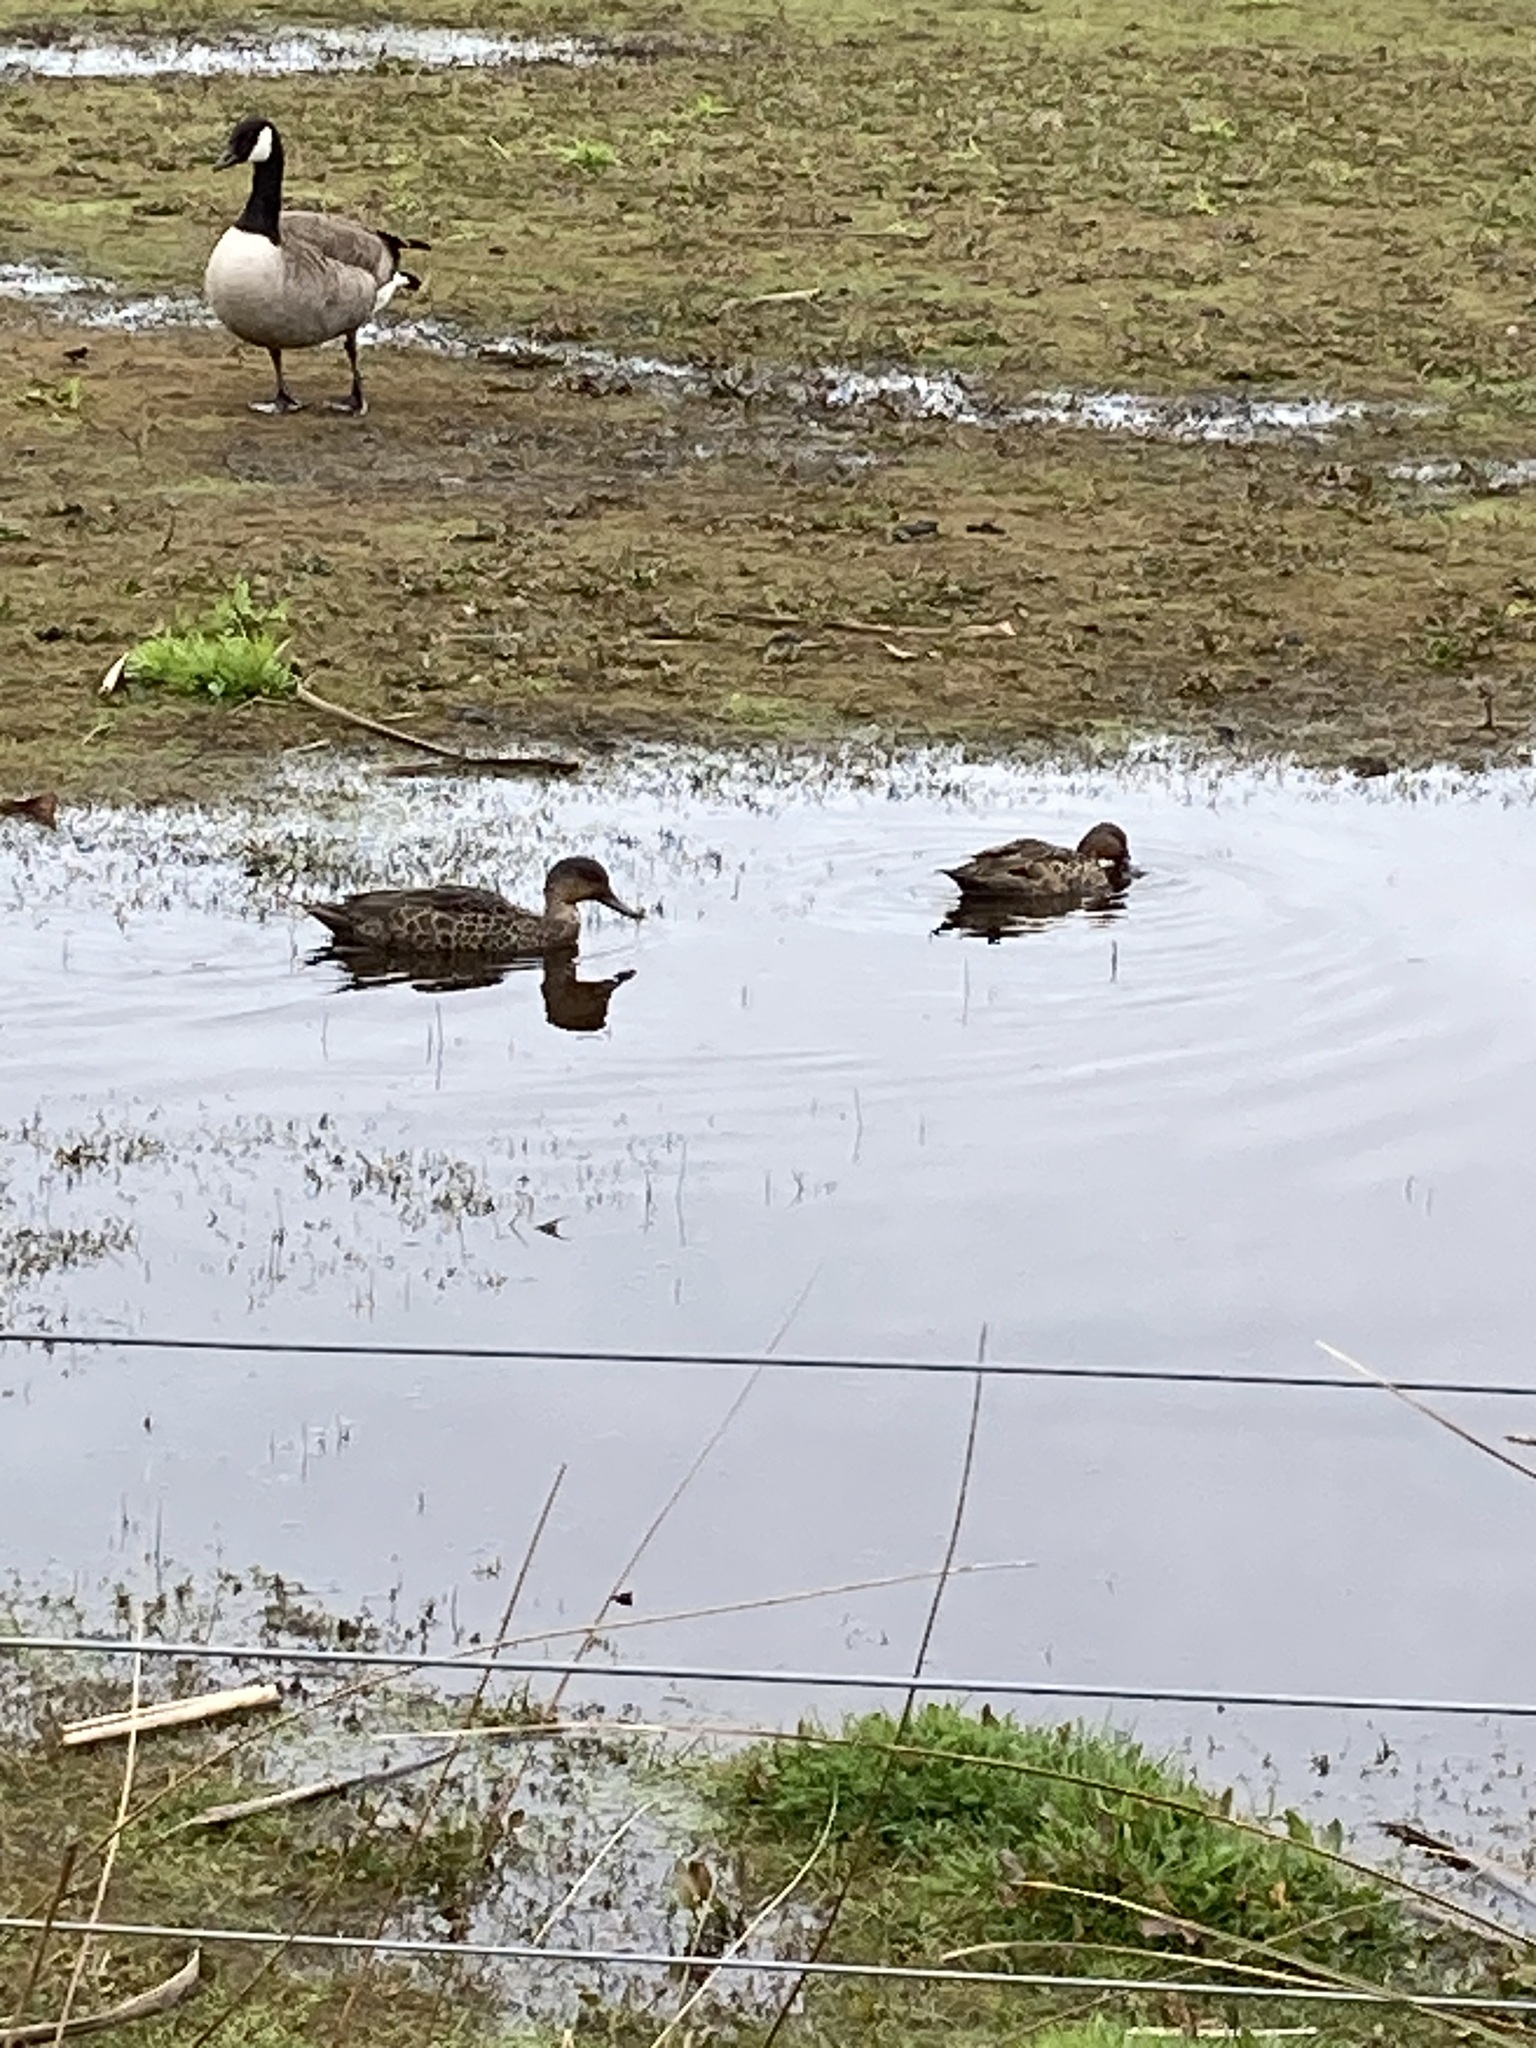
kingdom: Animalia
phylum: Chordata
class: Aves
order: Anseriformes
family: Anatidae
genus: Anas
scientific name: Anas gracilis
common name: Grey teal
